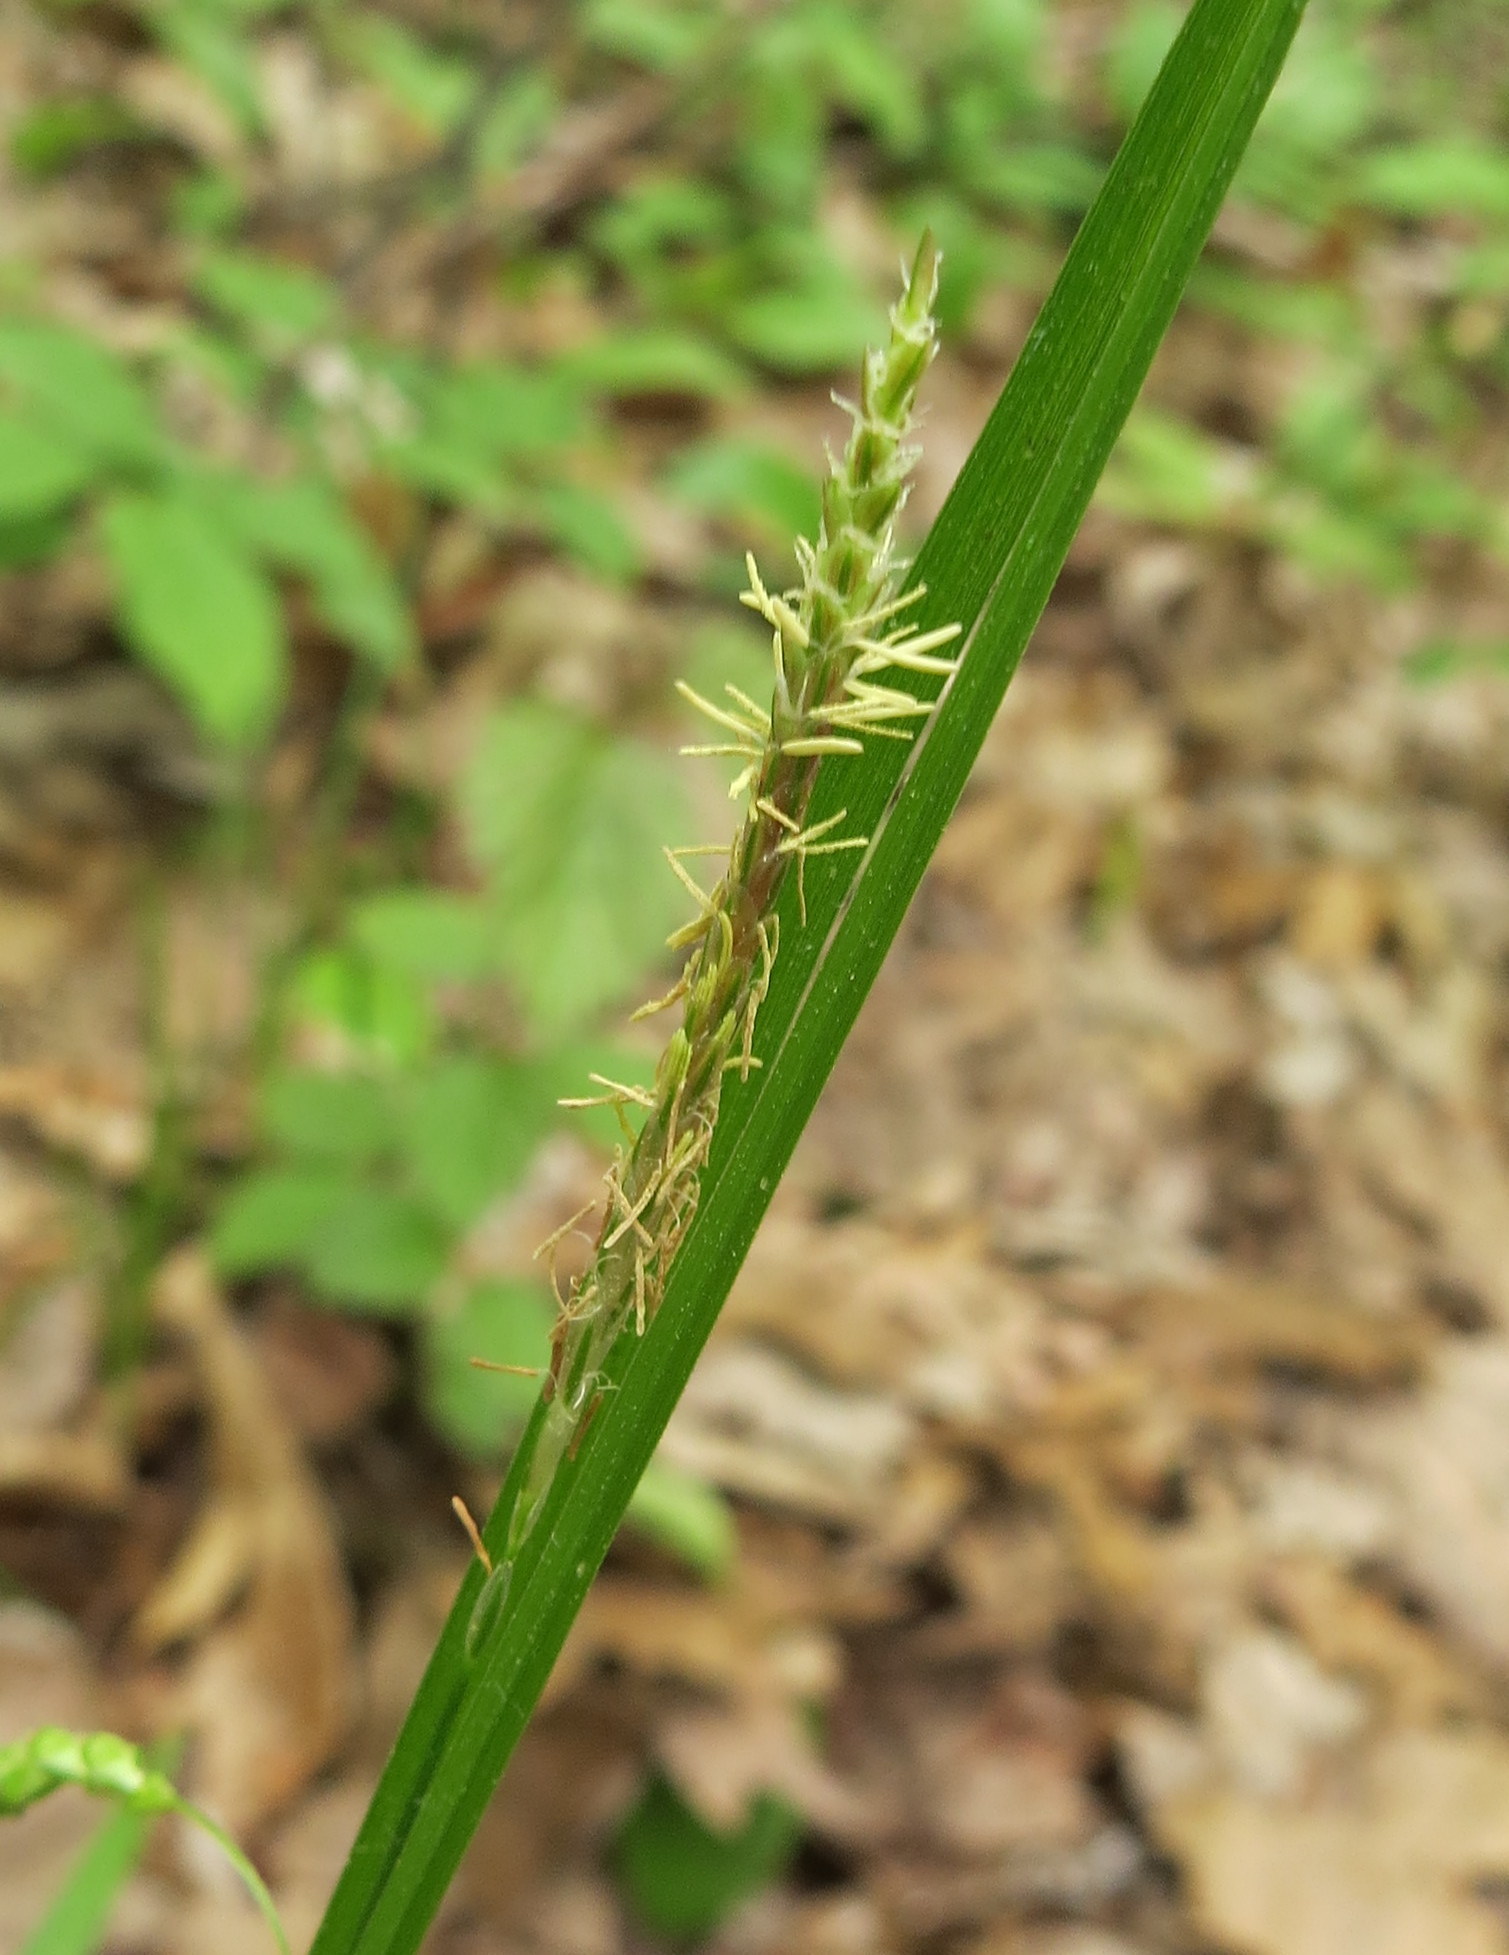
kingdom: Plantae
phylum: Tracheophyta
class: Liliopsida
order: Poales
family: Cyperaceae
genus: Carex
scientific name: Carex gracillima
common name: Graceful sedge
